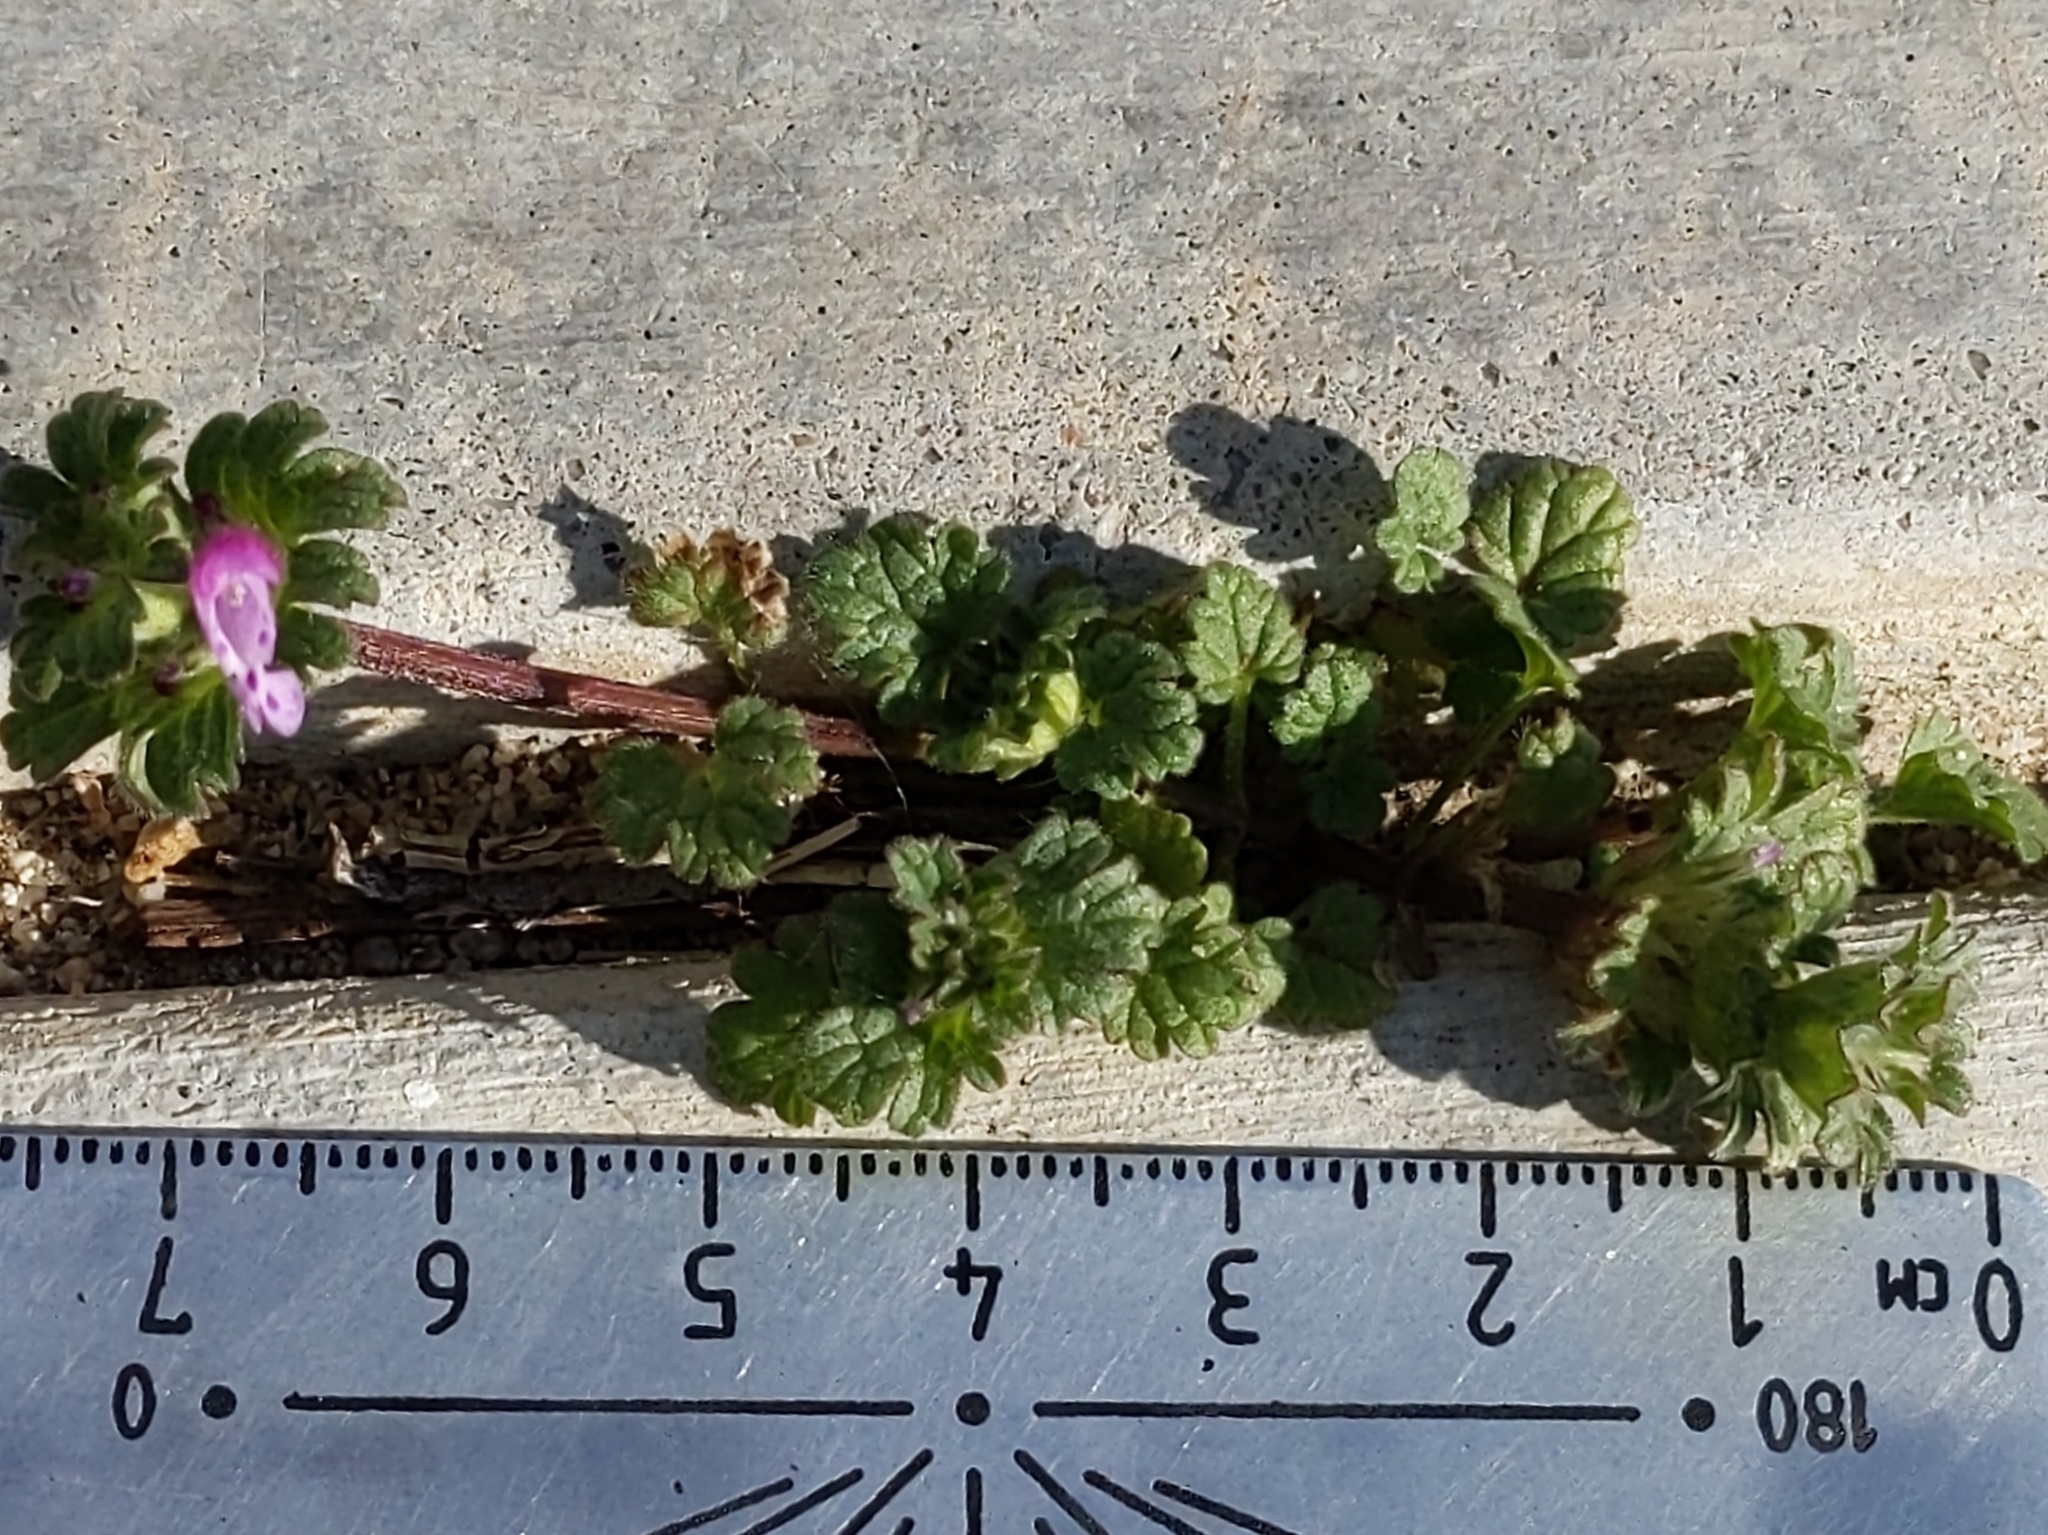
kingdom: Plantae
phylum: Tracheophyta
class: Magnoliopsida
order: Lamiales
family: Lamiaceae
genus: Lamium
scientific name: Lamium amplexicaule
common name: Henbit dead-nettle
